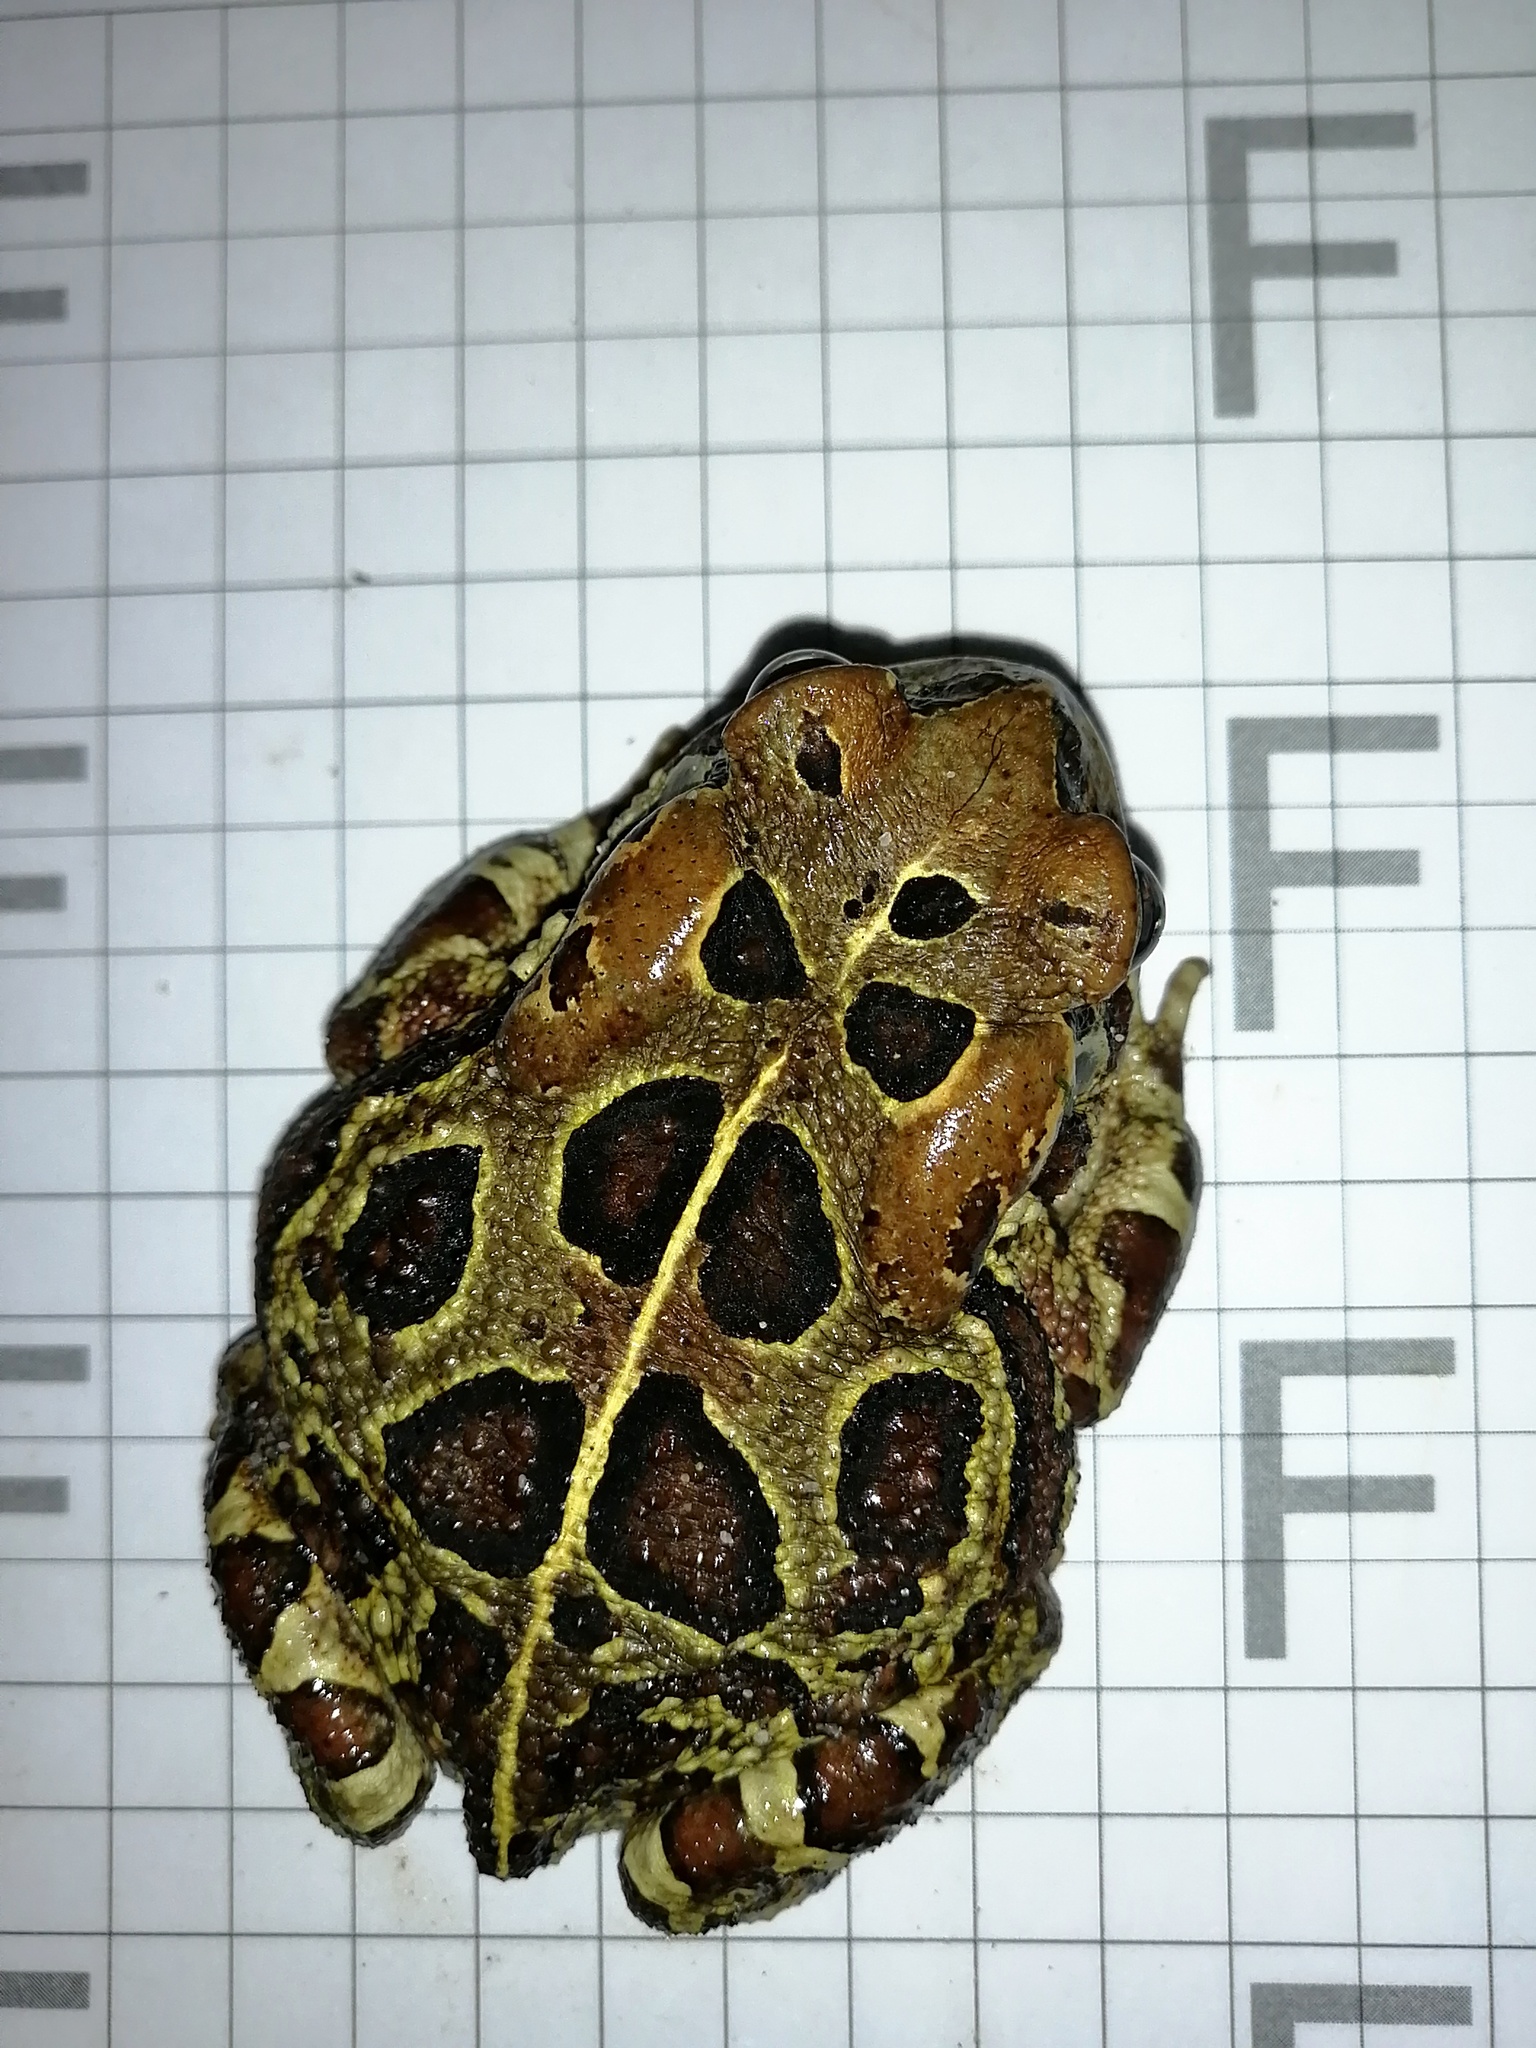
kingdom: Animalia
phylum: Chordata
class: Amphibia
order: Anura
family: Bufonidae
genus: Sclerophrys
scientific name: Sclerophrys pantherina
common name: Panther toad
